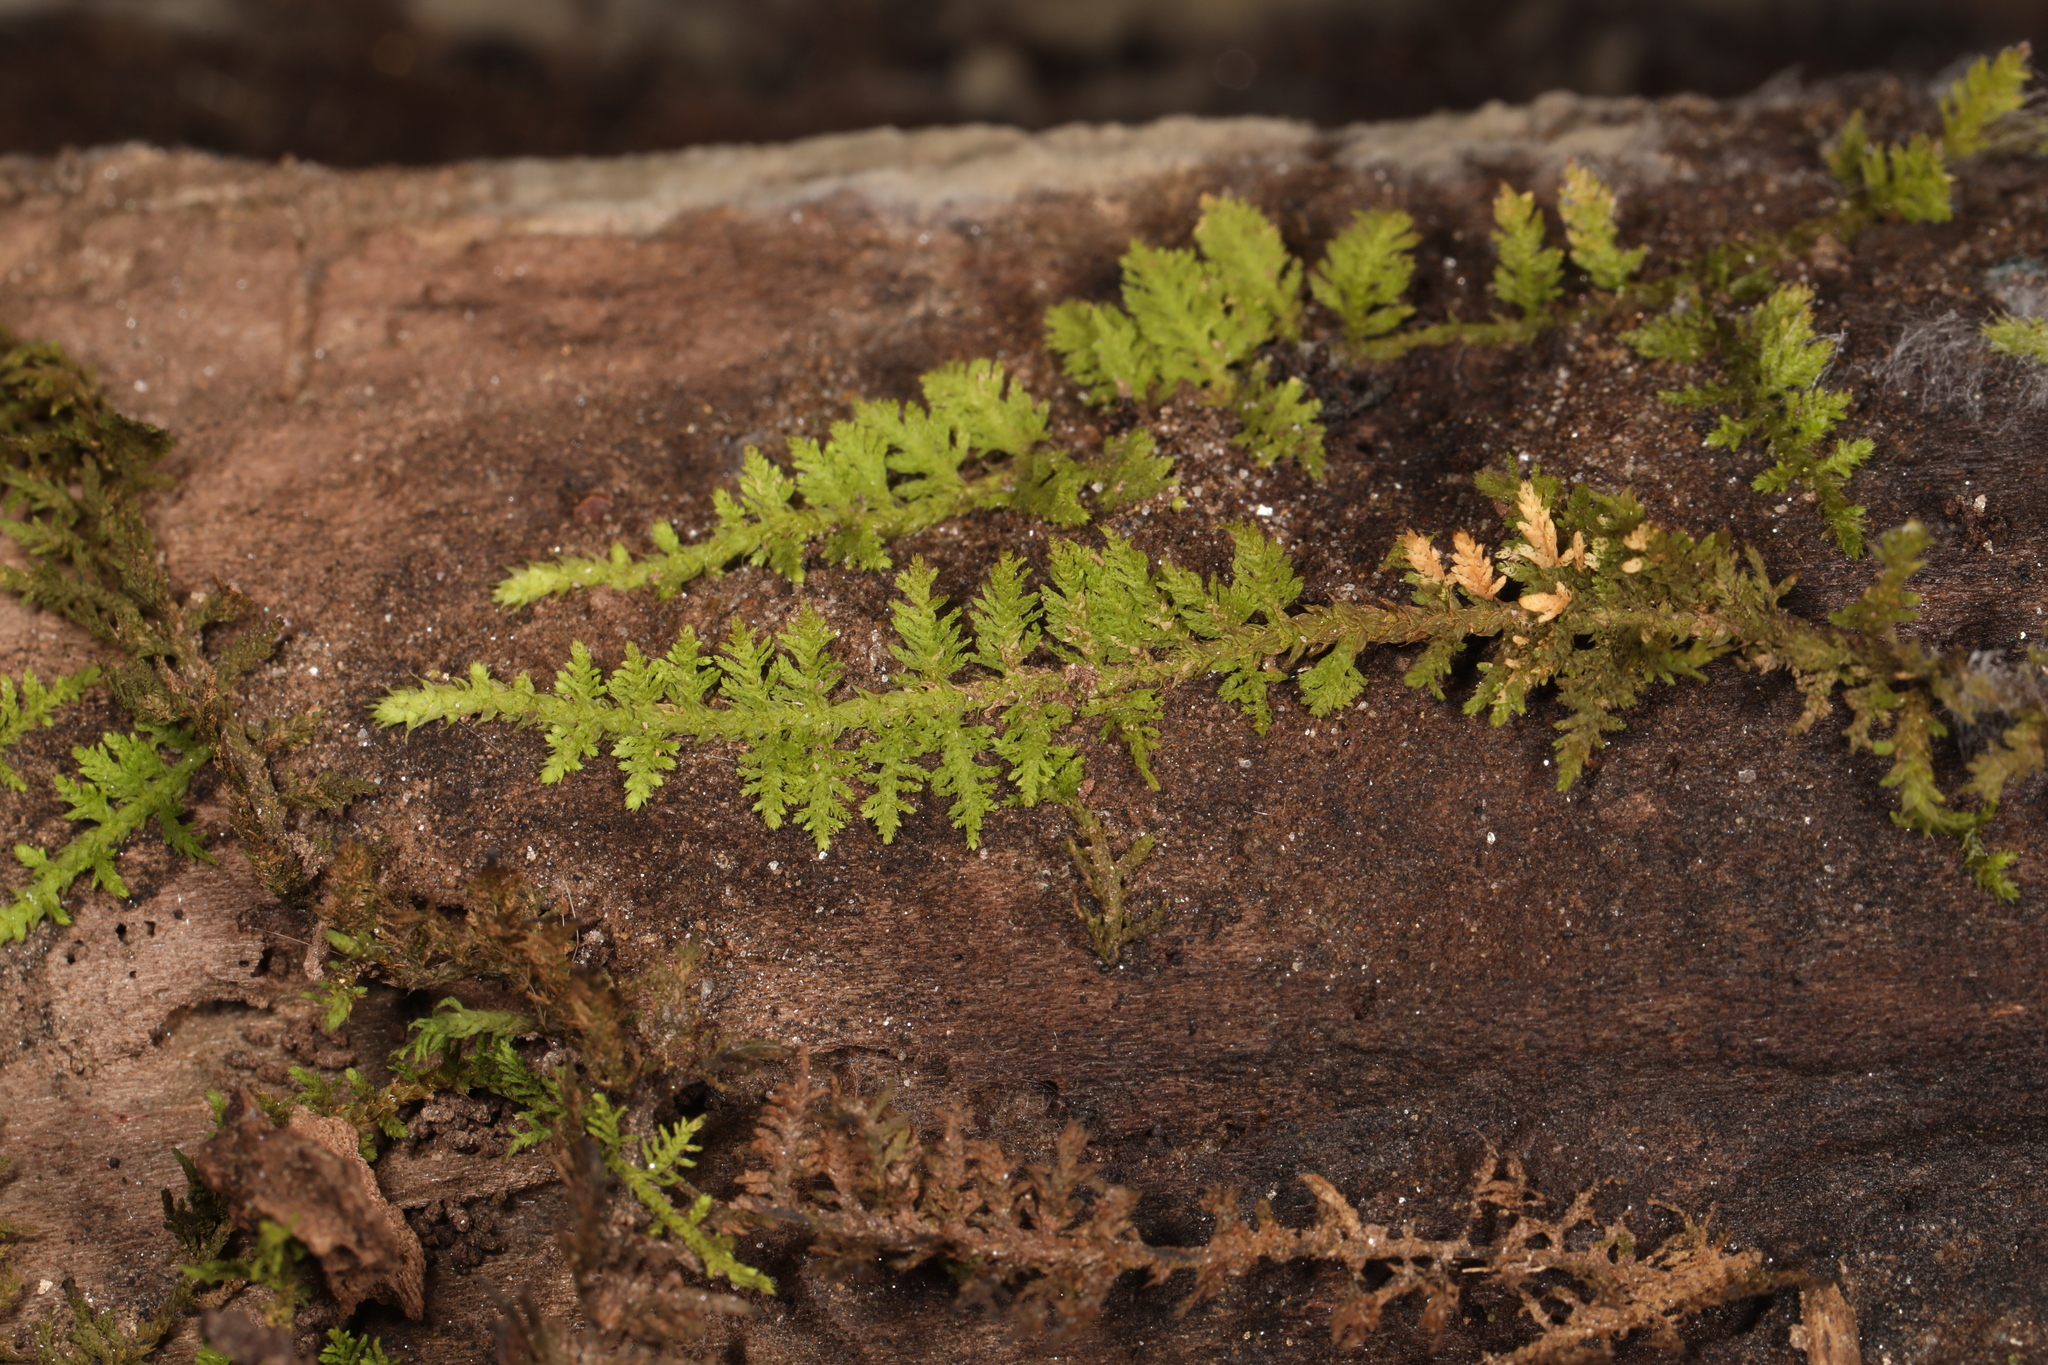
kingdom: Plantae
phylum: Bryophyta
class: Bryopsida
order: Hypnales
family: Thuidiaceae
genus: Thuidium
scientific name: Thuidium delicatulum
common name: Delicate fern moss
